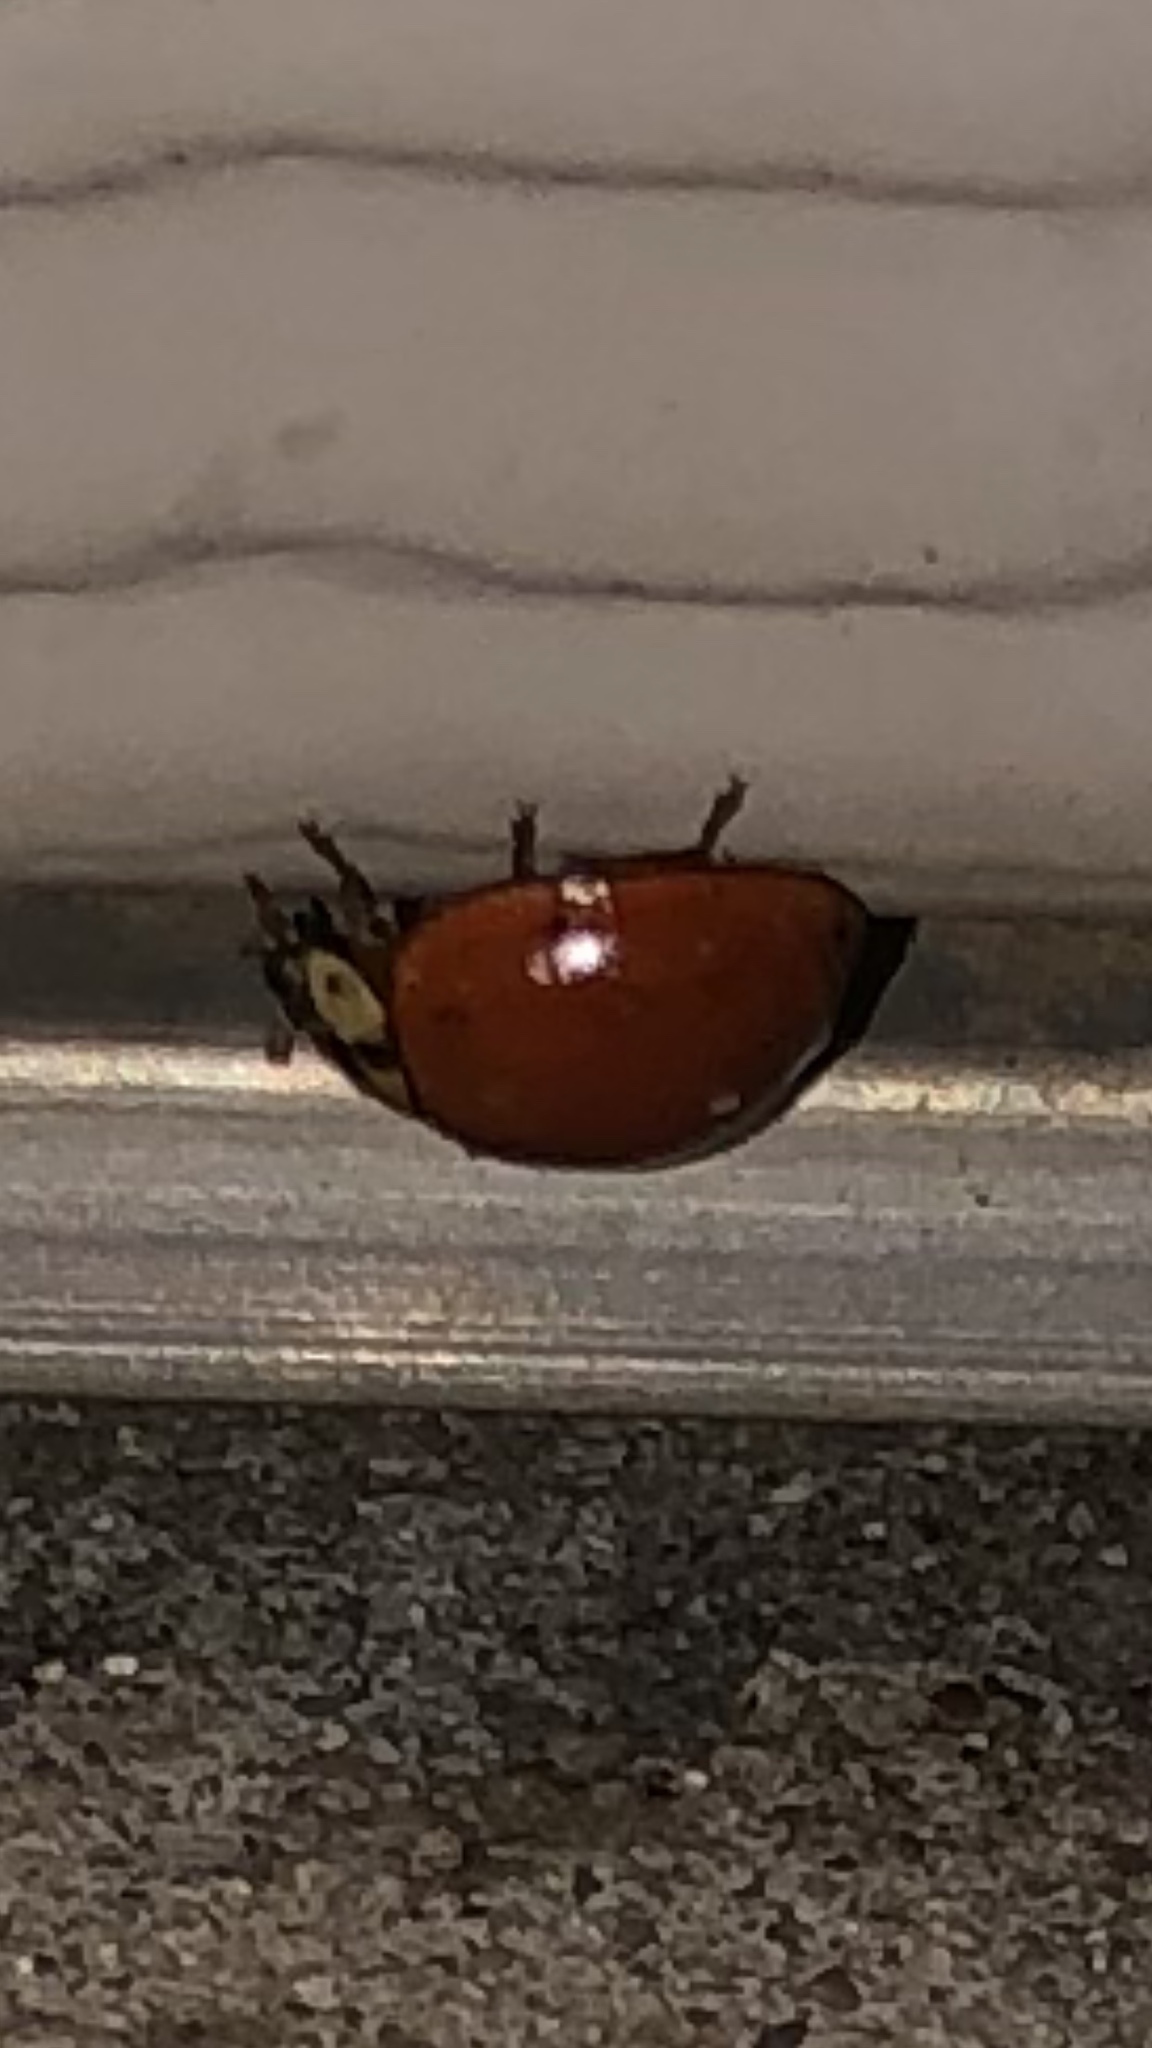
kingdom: Animalia
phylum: Arthropoda
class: Insecta
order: Coleoptera
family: Coccinellidae
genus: Harmonia
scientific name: Harmonia axyridis
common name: Harlequin ladybird
